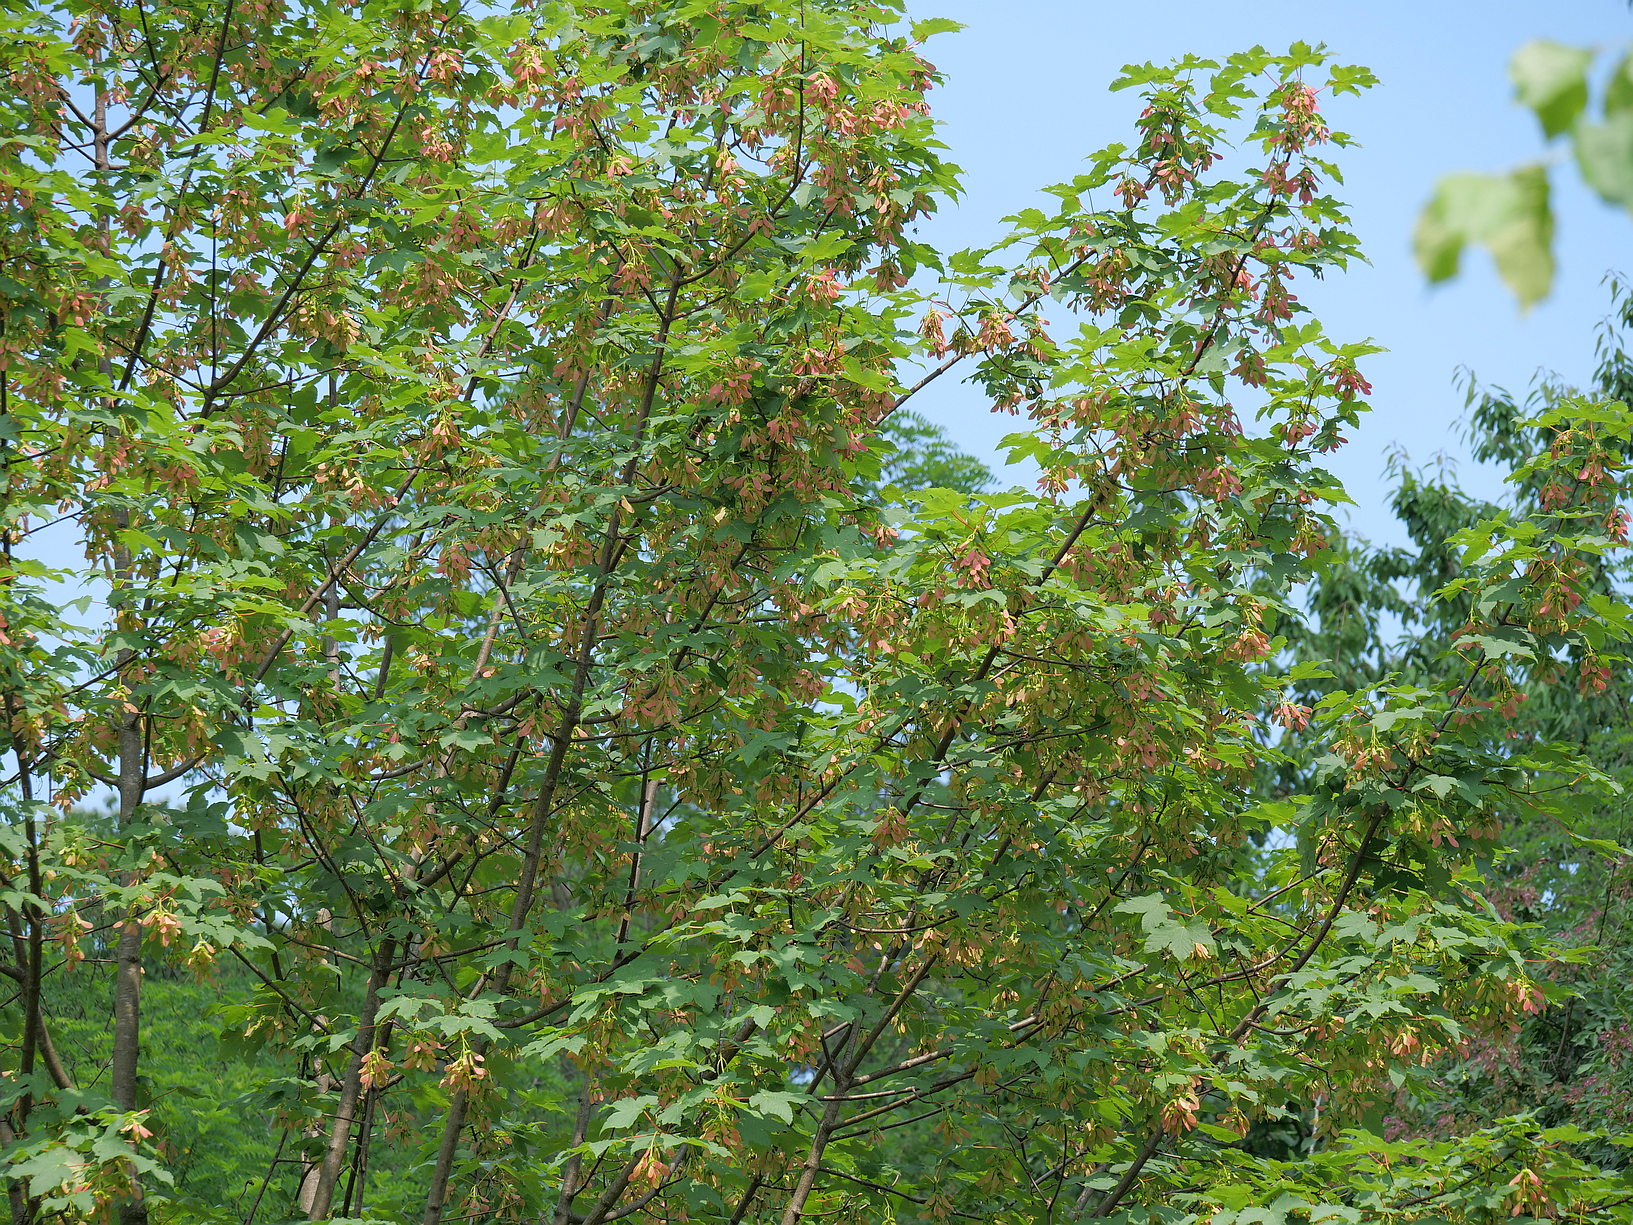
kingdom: Plantae
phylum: Tracheophyta
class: Magnoliopsida
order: Sapindales
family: Sapindaceae
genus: Acer
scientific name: Acer pseudoplatanus
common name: Sycamore
